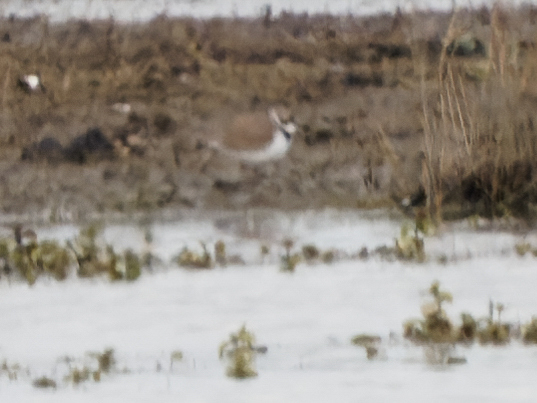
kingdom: Animalia
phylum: Chordata
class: Aves
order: Charadriiformes
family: Charadriidae
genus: Charadrius
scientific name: Charadrius dubius
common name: Little ringed plover
